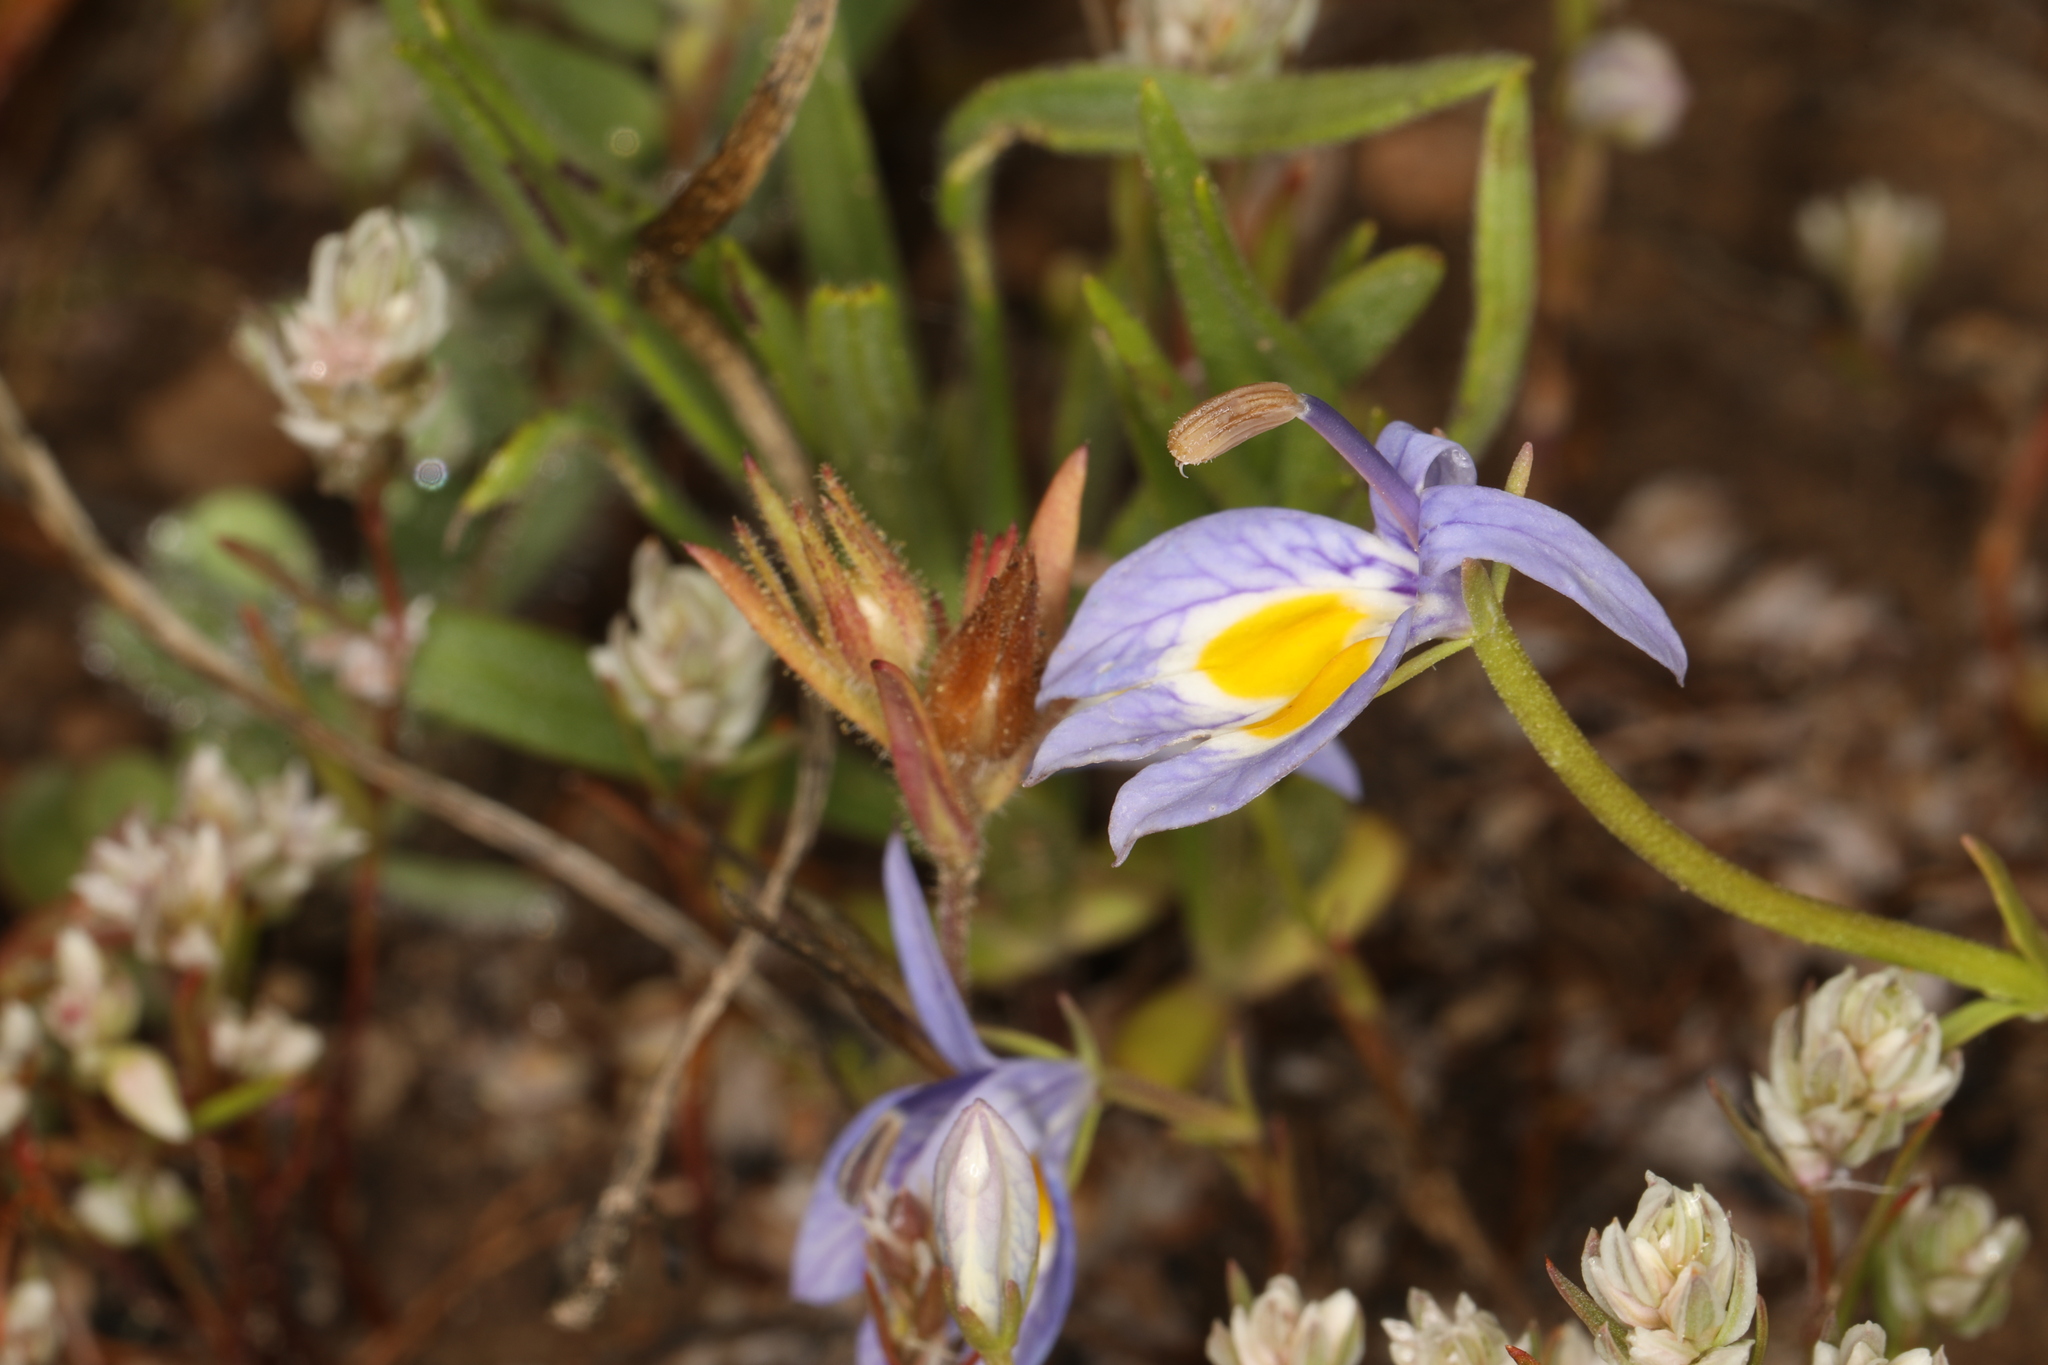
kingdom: Plantae
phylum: Tracheophyta
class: Magnoliopsida
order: Asterales
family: Campanulaceae
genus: Downingia
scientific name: Downingia bacigalupii
